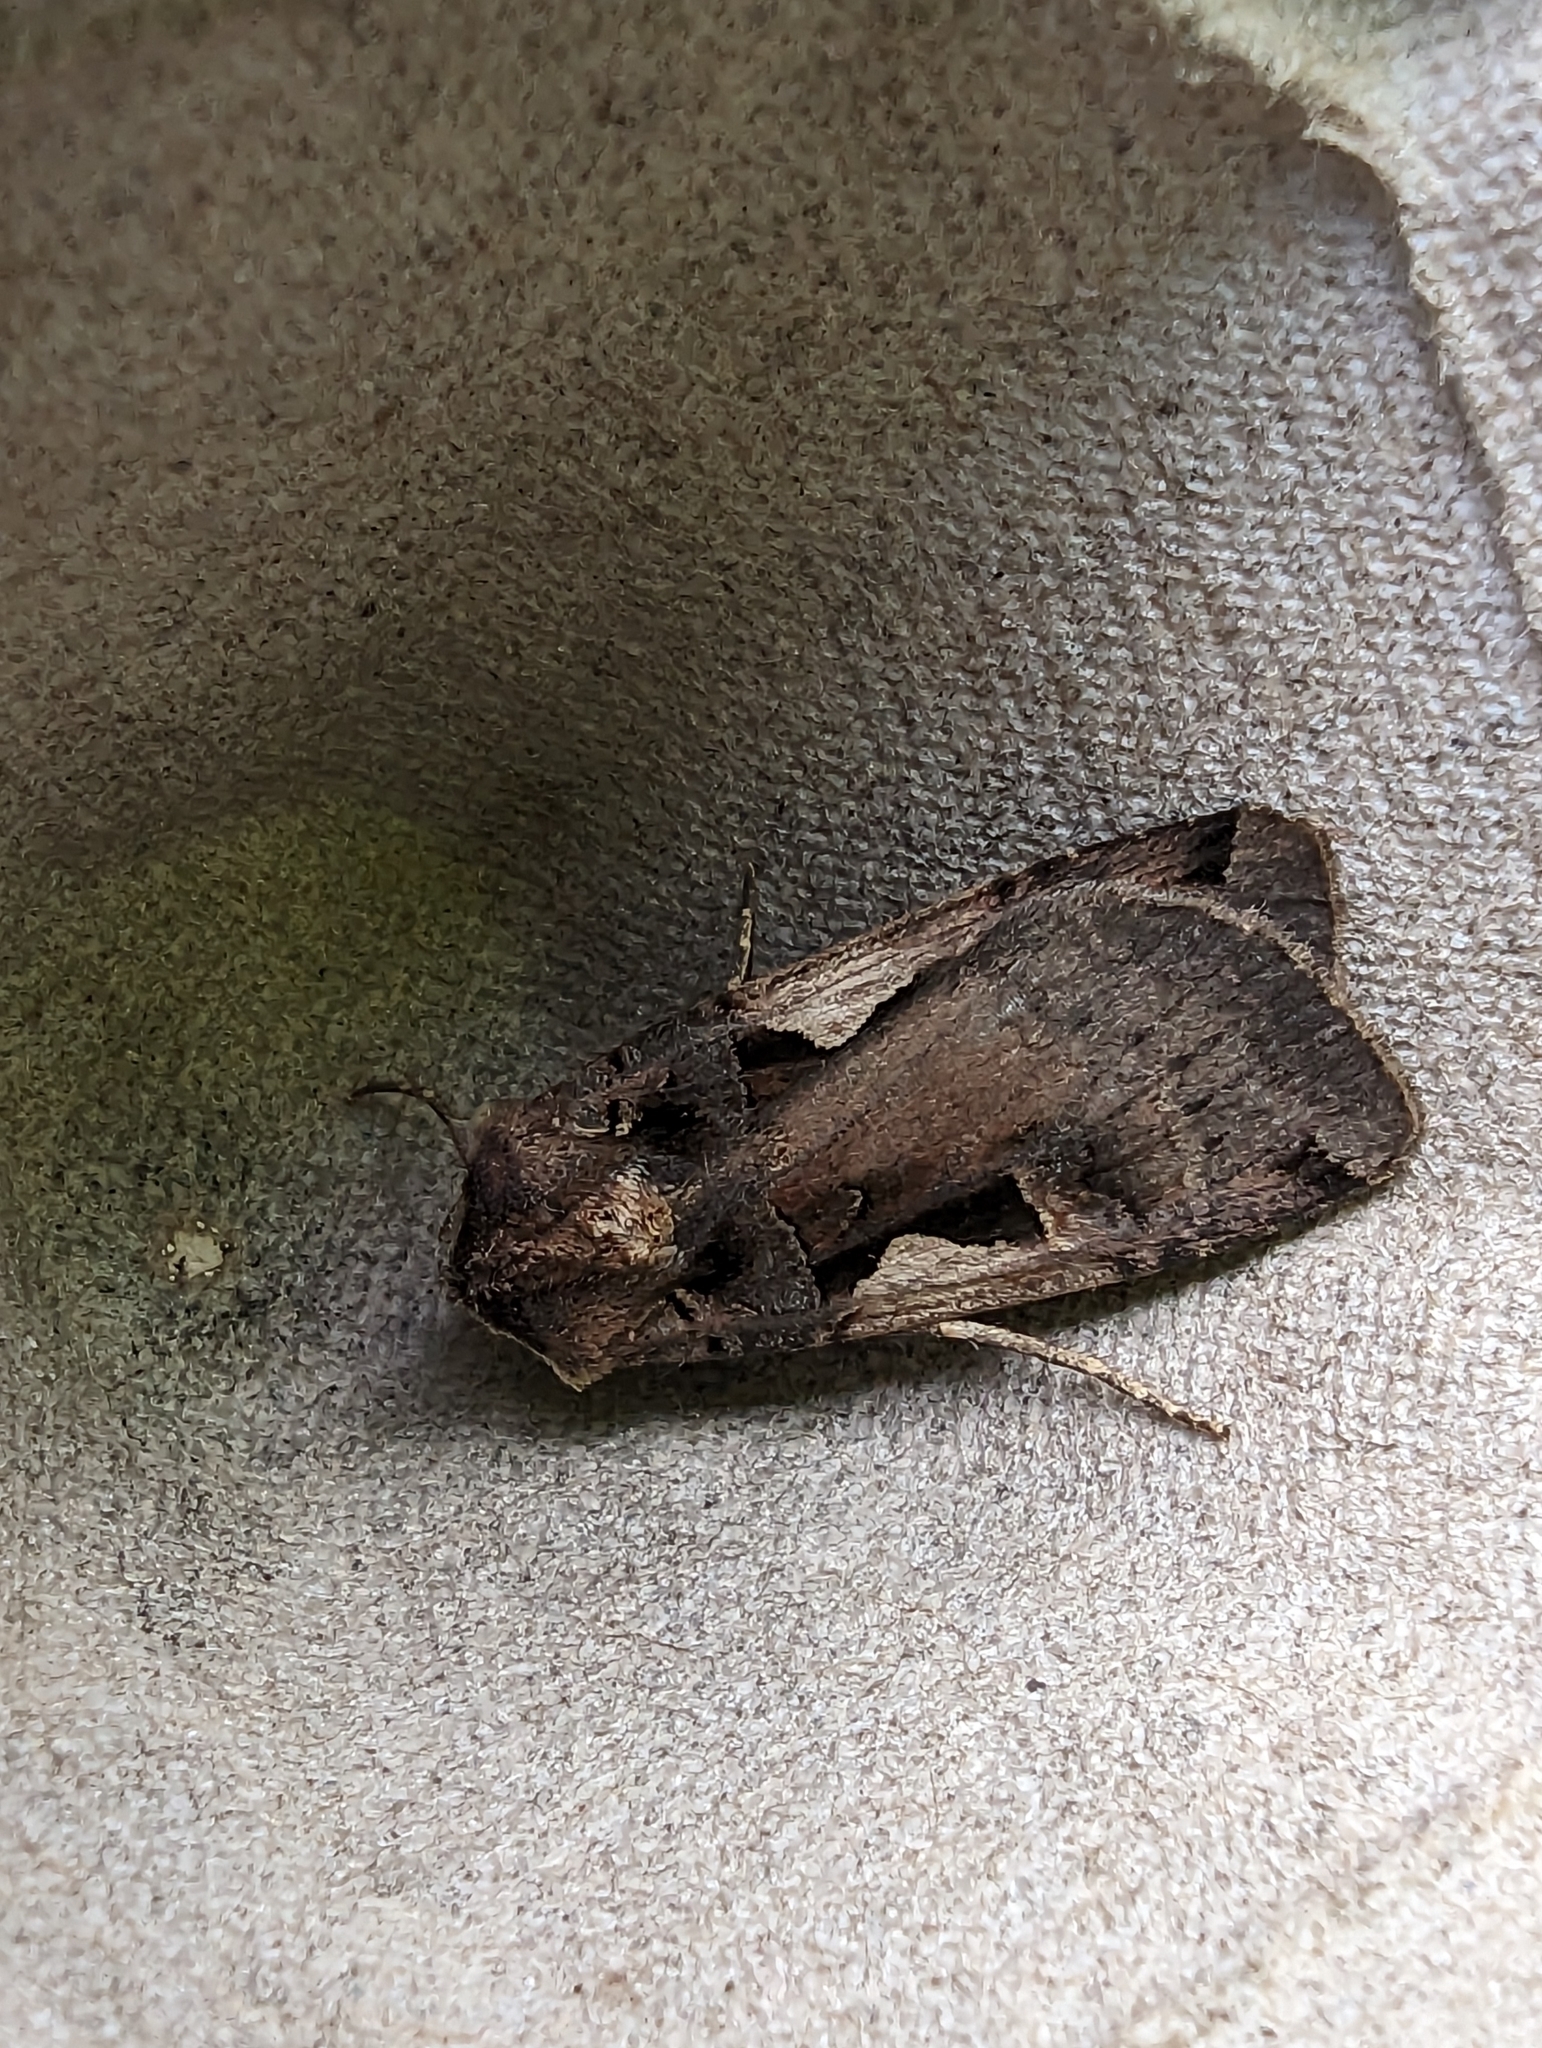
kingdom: Animalia
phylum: Arthropoda
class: Insecta
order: Lepidoptera
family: Noctuidae
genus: Xestia
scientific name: Xestia c-nigrum
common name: Setaceous hebrew character
